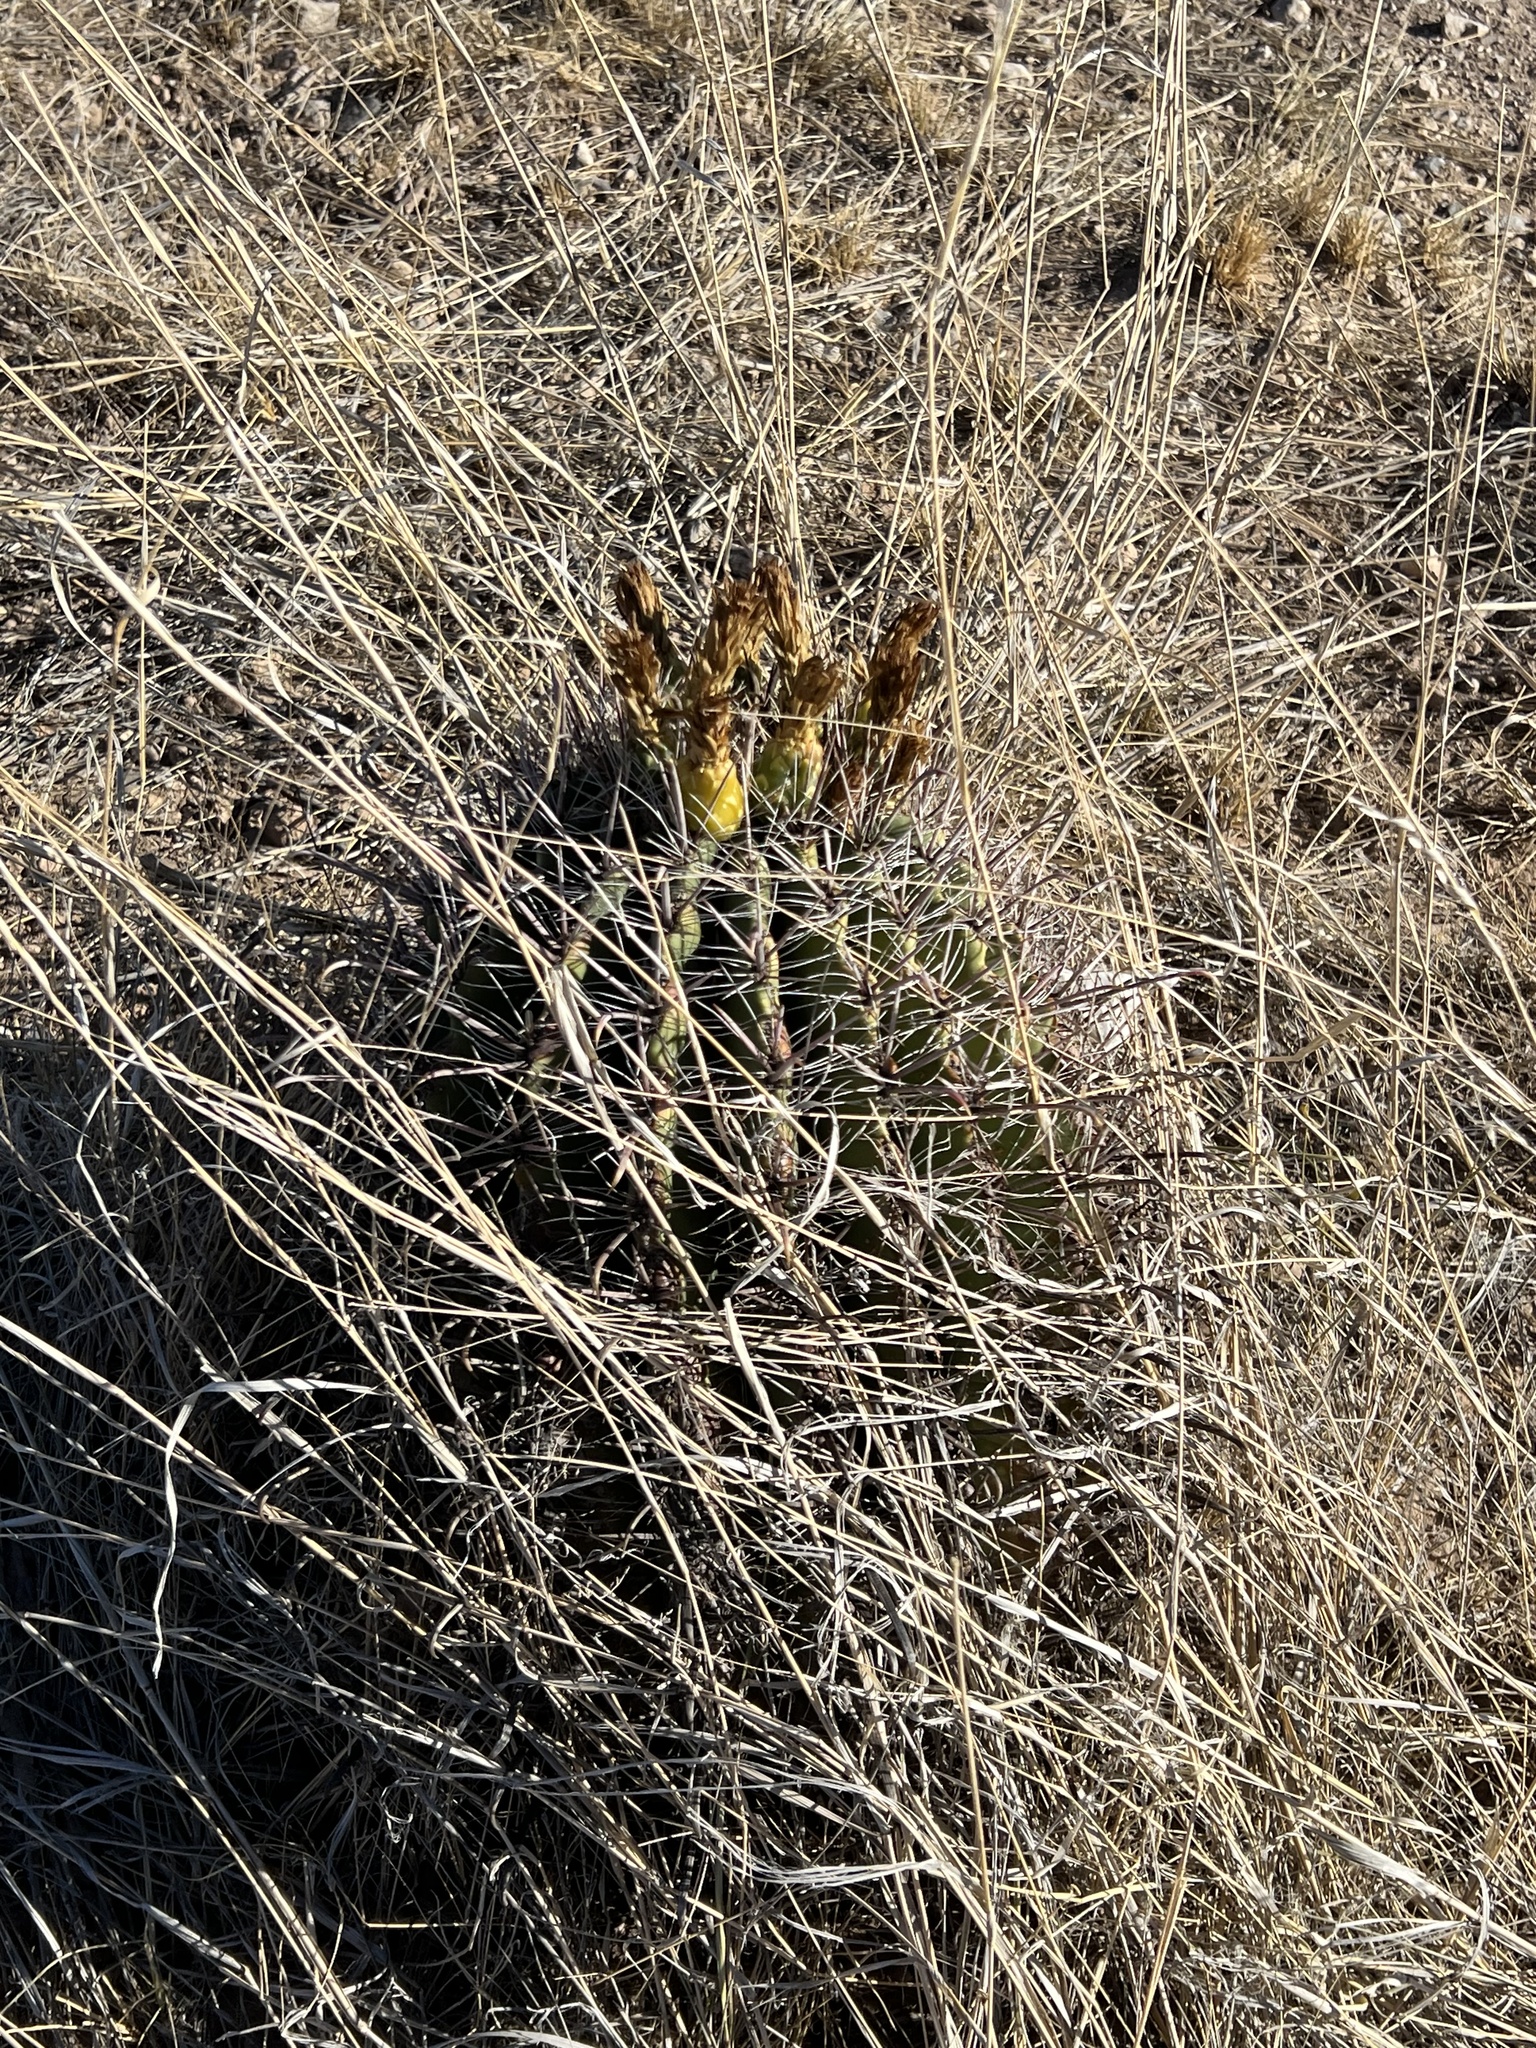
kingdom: Plantae
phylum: Tracheophyta
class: Magnoliopsida
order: Caryophyllales
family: Cactaceae
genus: Ferocactus
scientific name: Ferocactus wislizeni
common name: Candy barrel cactus
